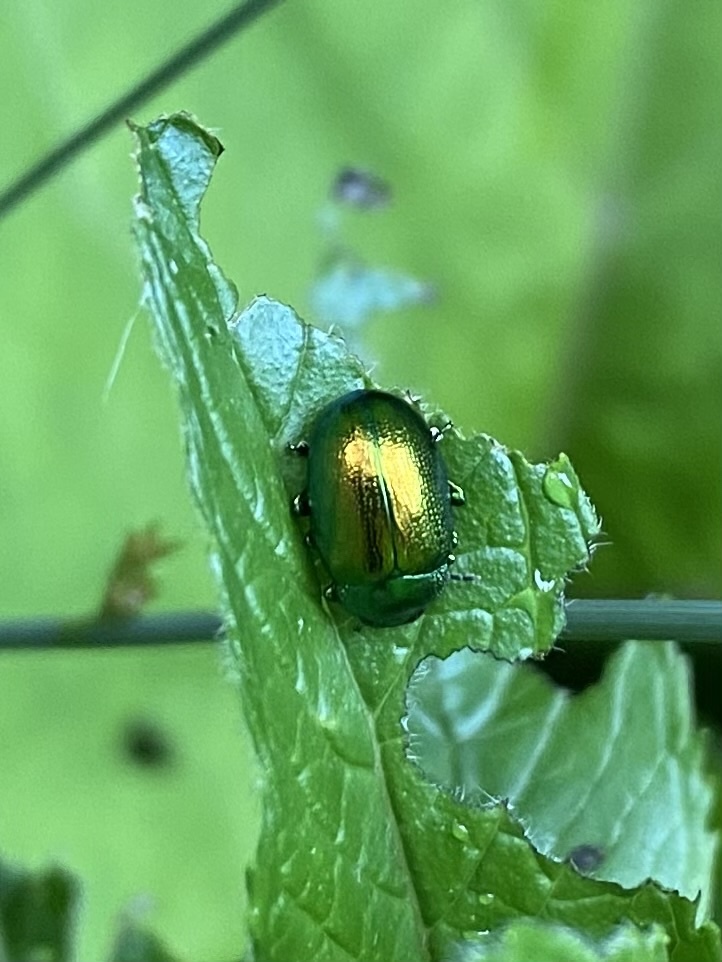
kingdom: Animalia
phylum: Arthropoda
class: Insecta
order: Coleoptera
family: Chrysomelidae
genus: Chrysolina
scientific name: Chrysolina herbacea
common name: Mint leaf beatle
